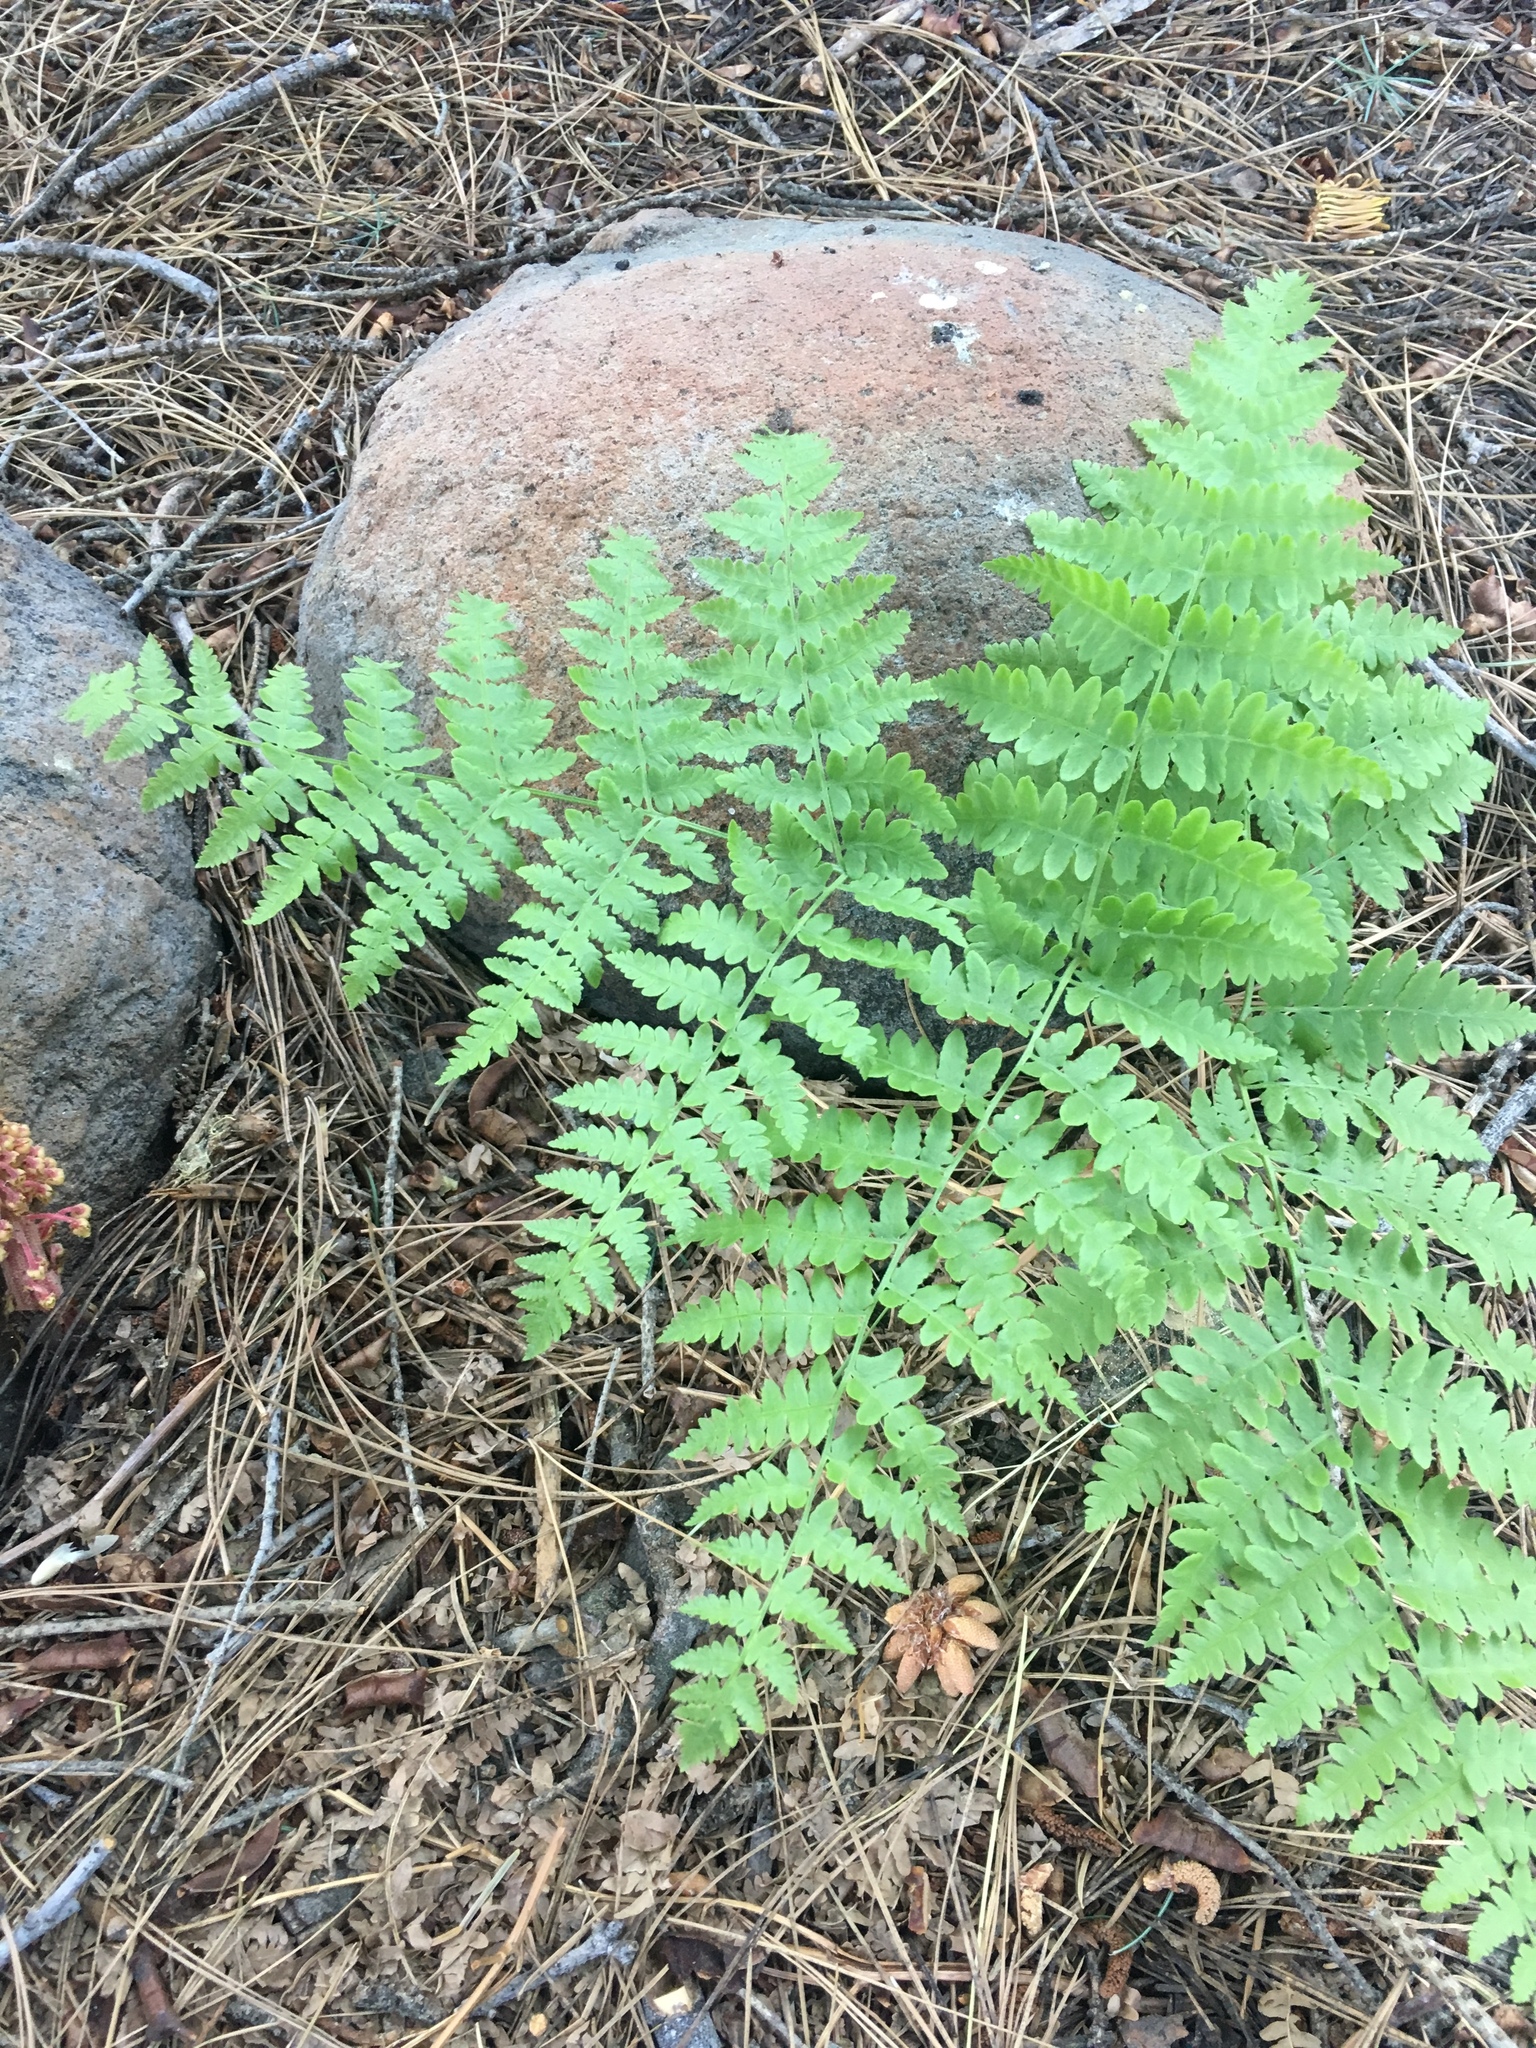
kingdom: Plantae
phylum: Tracheophyta
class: Polypodiopsida
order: Polypodiales
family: Dennstaedtiaceae
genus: Pteridium
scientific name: Pteridium aquilinum
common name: Bracken
